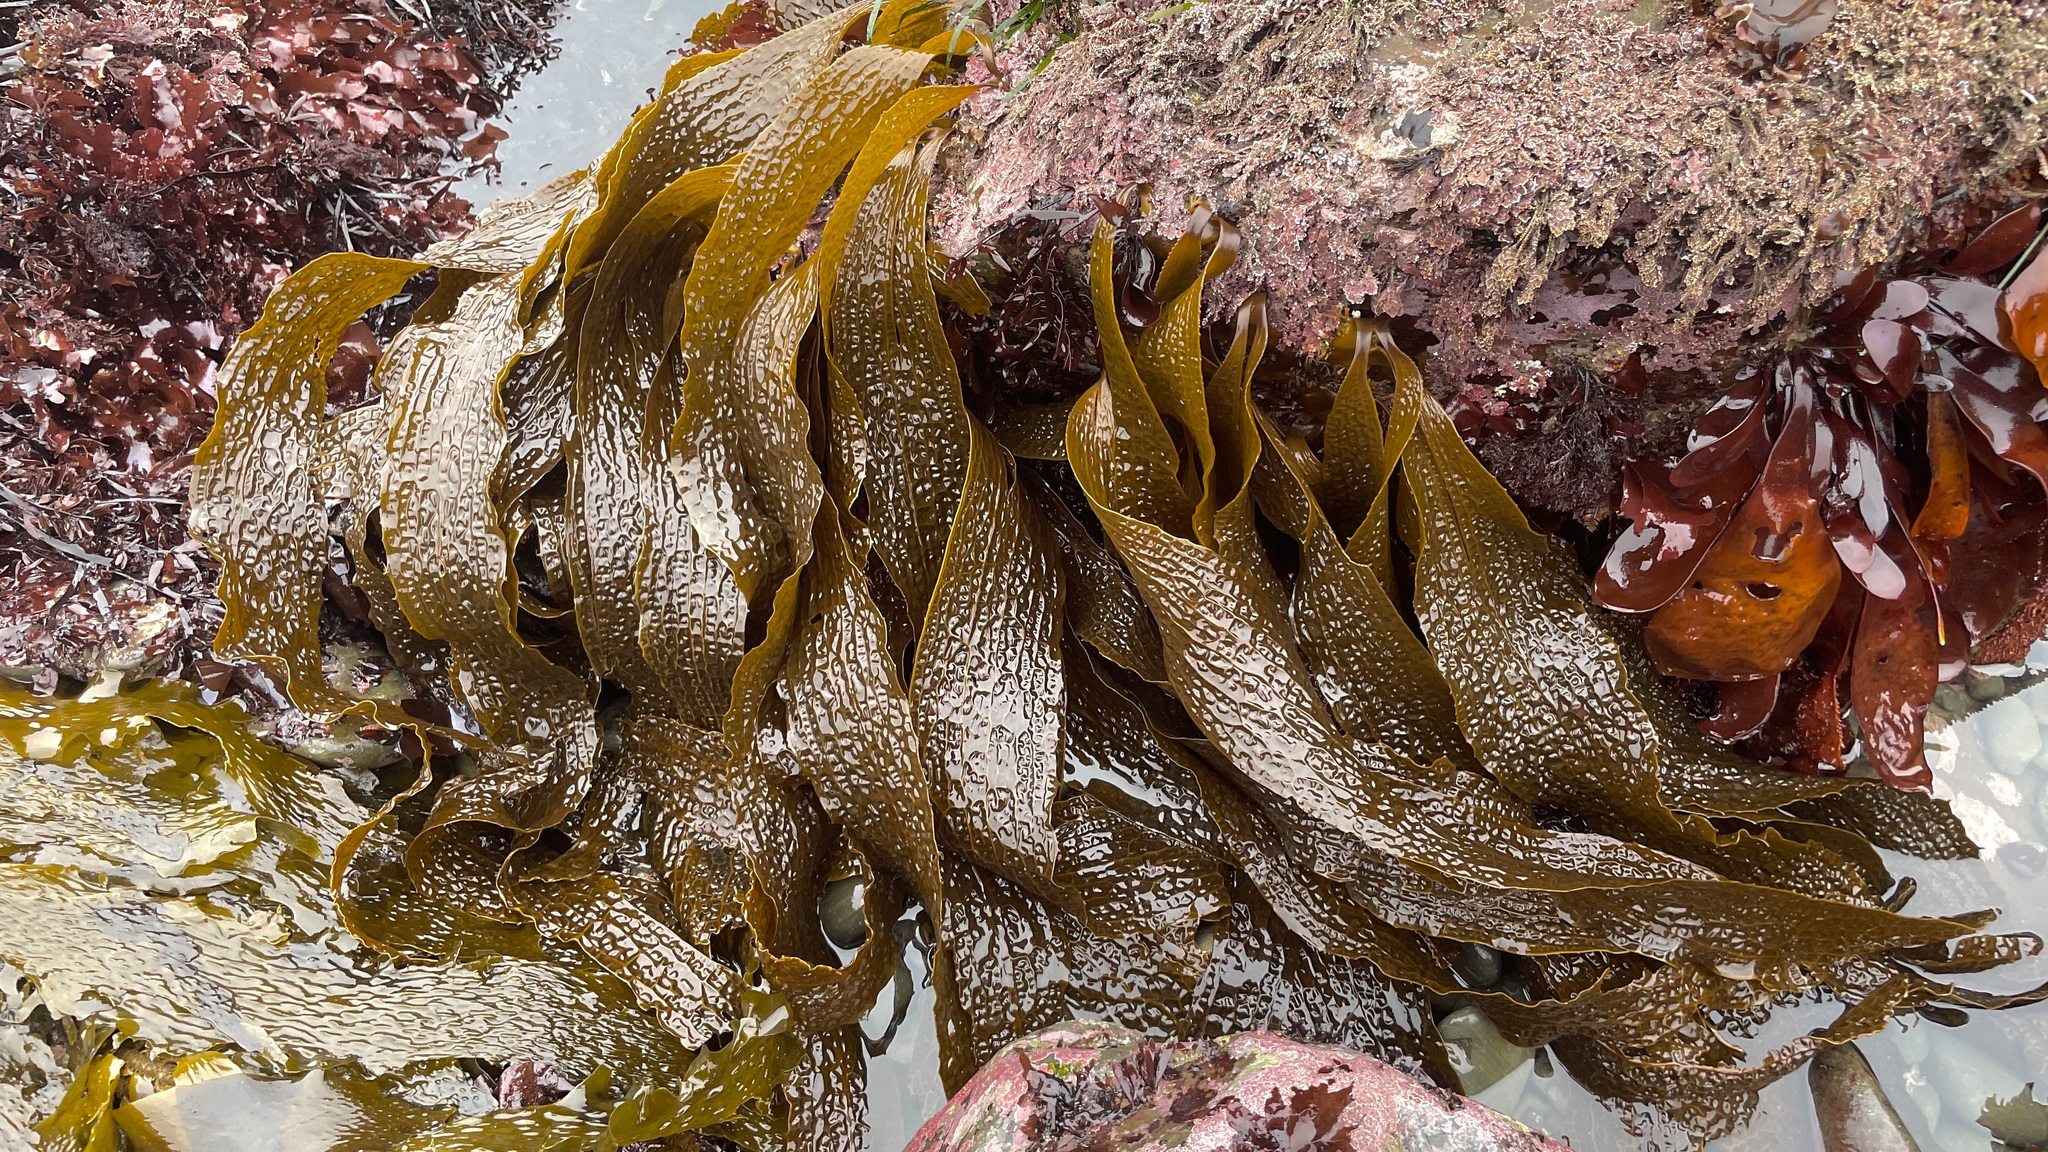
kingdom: Chromista
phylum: Ochrophyta
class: Phaeophyceae
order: Laminariales
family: Costariaceae
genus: Dictyoneurum
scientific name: Dictyoneurum californicum
